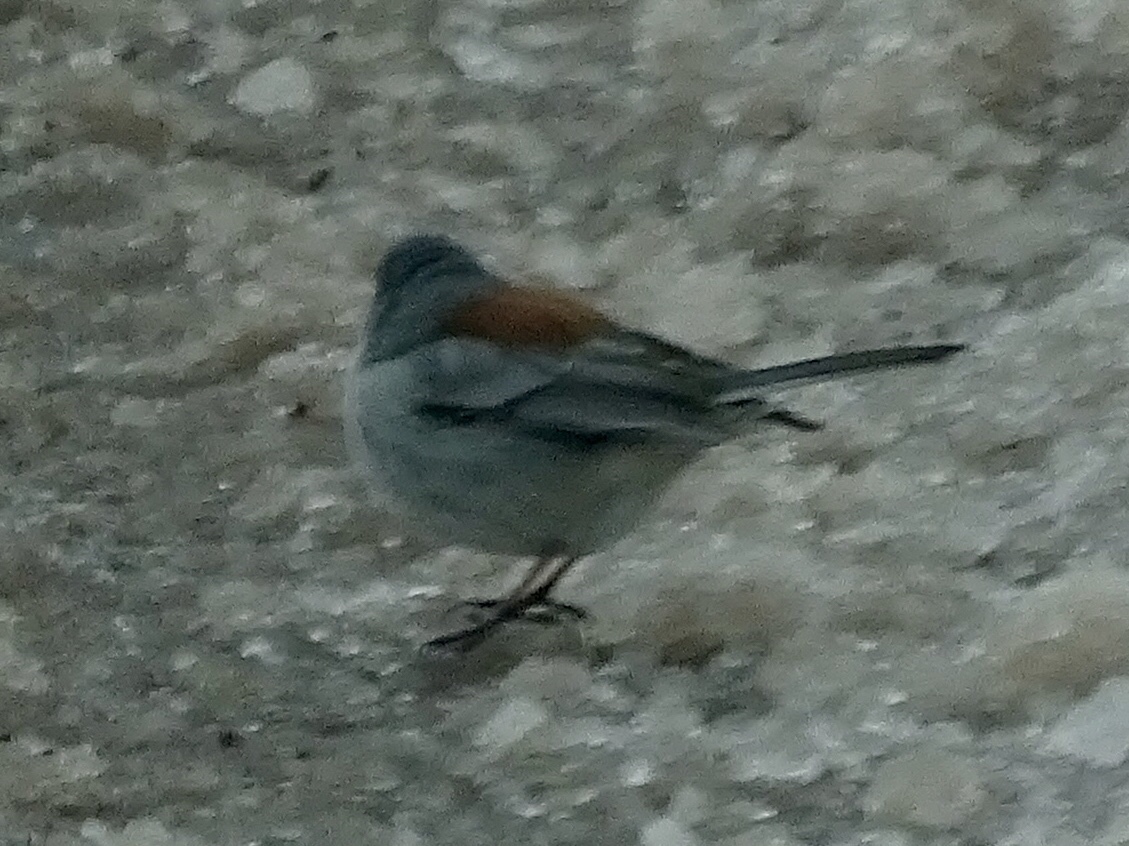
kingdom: Animalia
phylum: Chordata
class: Aves
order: Passeriformes
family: Passerellidae
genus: Junco
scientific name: Junco hyemalis
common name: Dark-eyed junco
